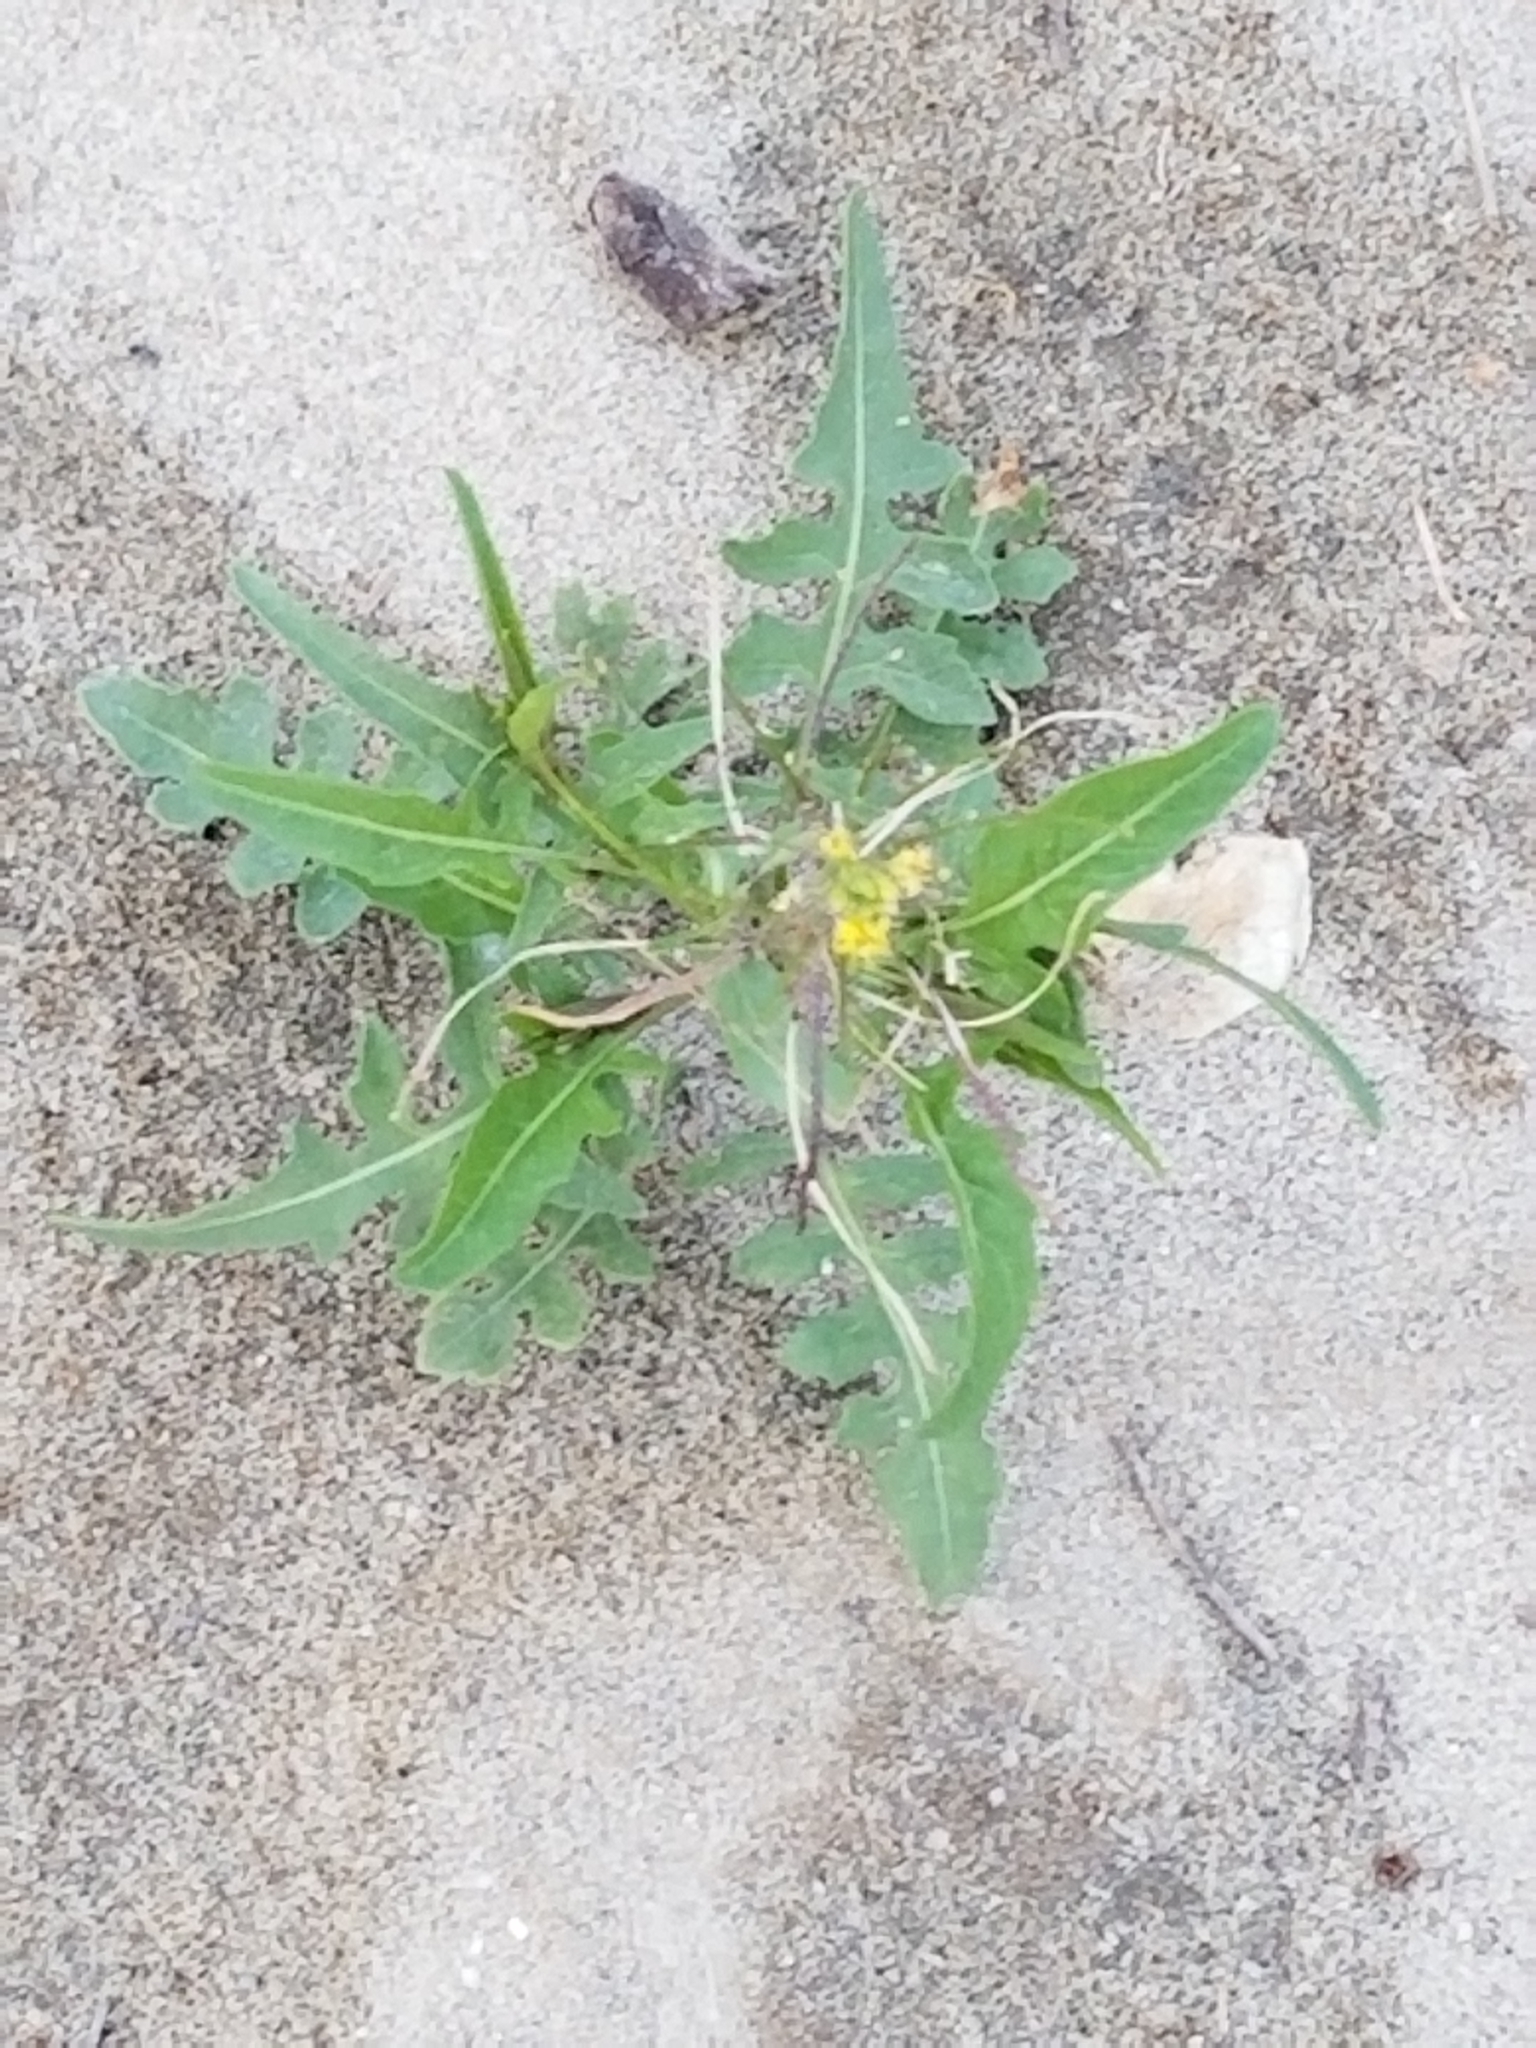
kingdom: Plantae
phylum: Tracheophyta
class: Magnoliopsida
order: Brassicales
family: Brassicaceae
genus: Sisymbrium
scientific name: Sisymbrium irio
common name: London rocket
